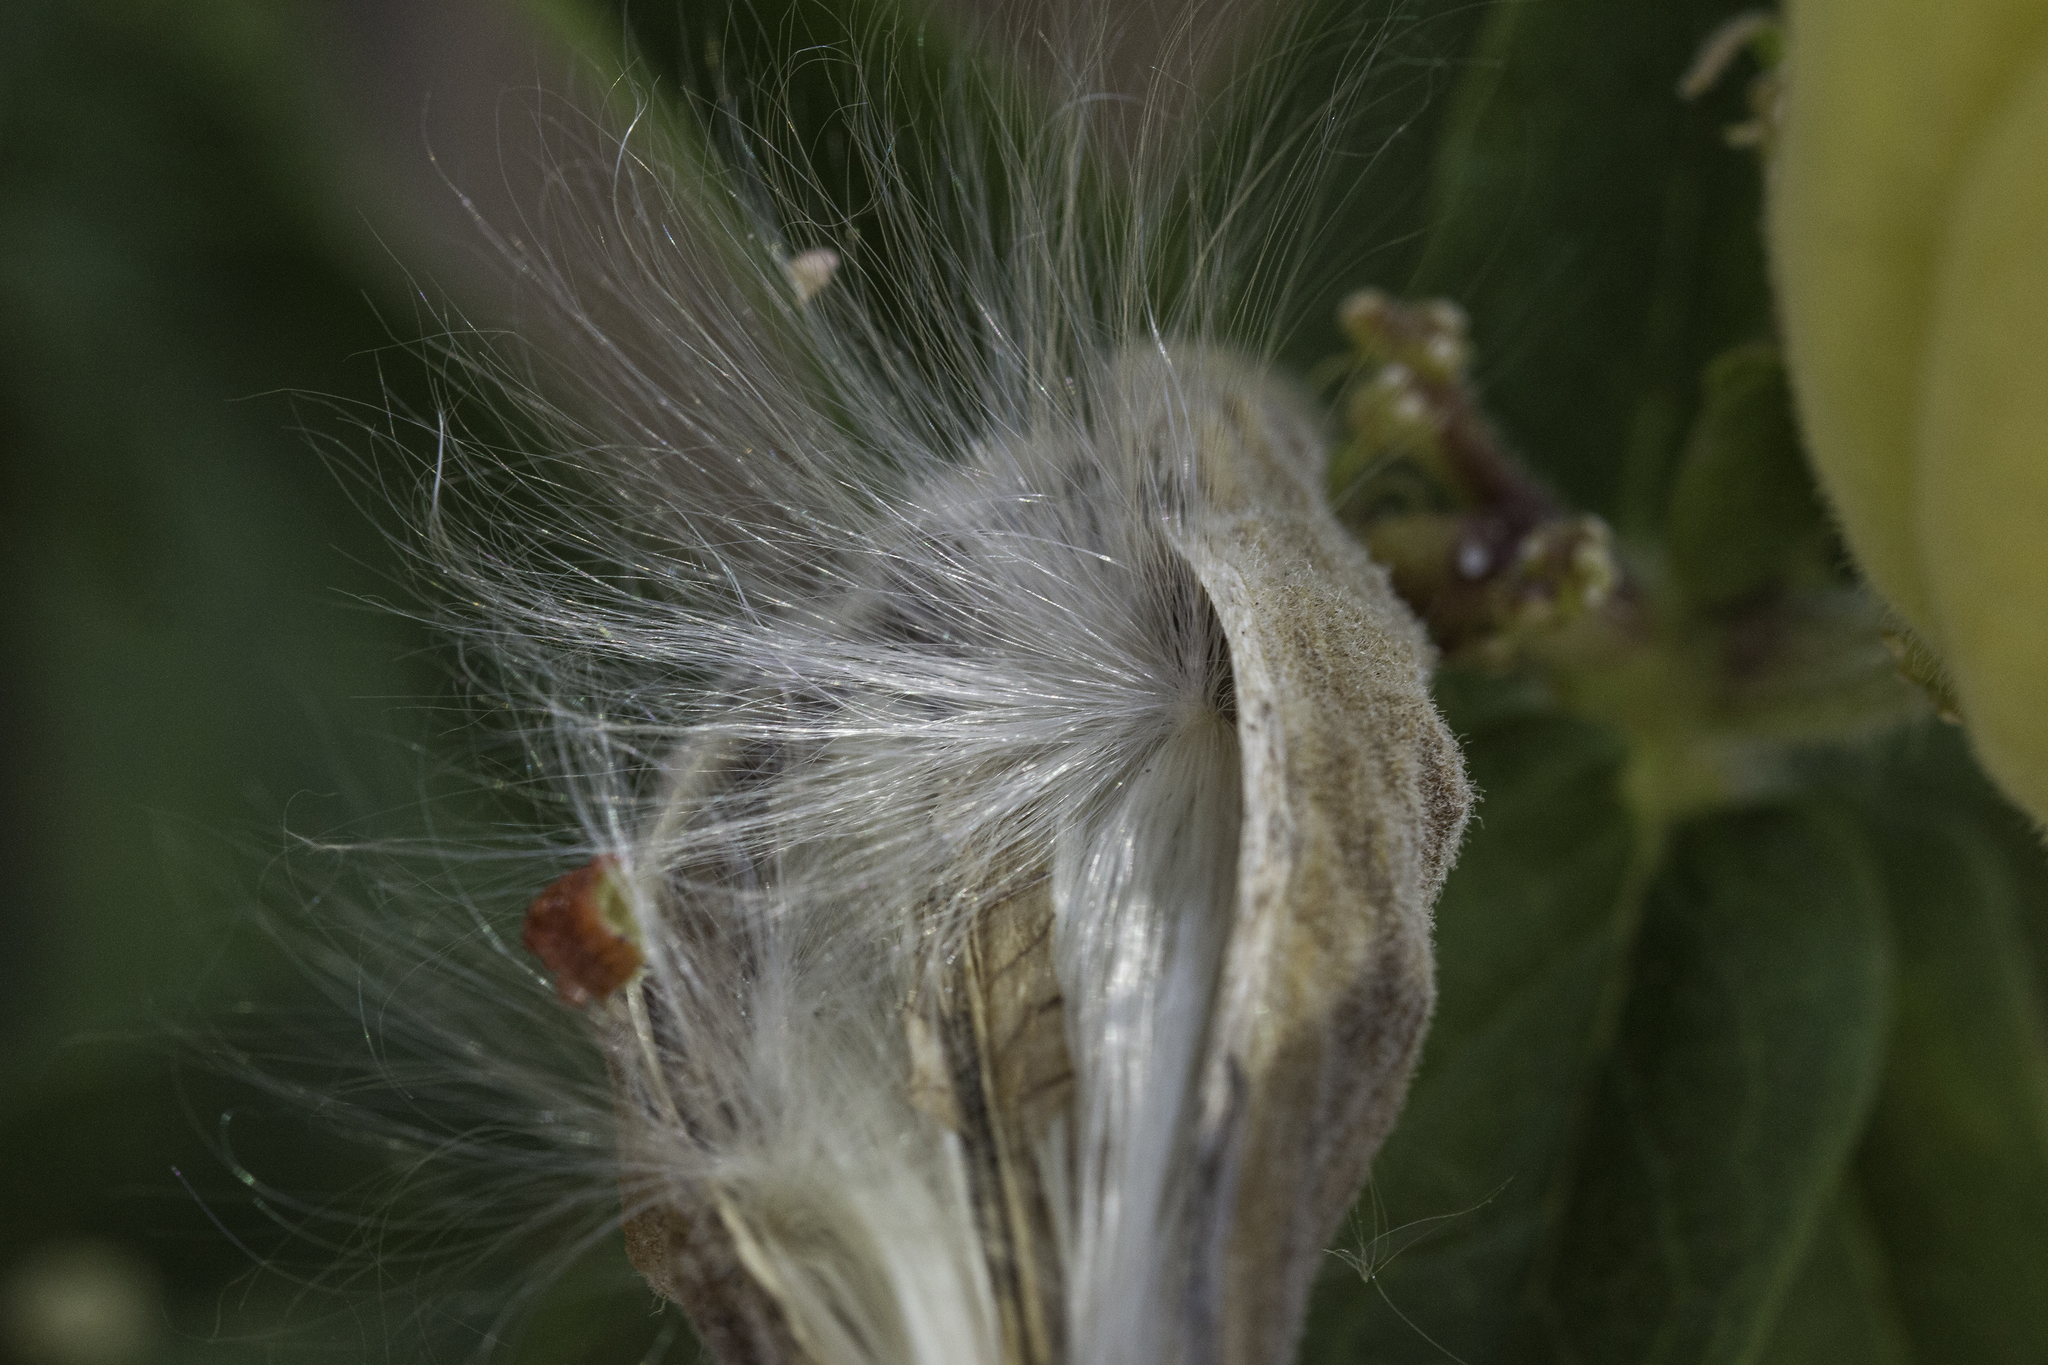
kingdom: Plantae
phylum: Tracheophyta
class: Magnoliopsida
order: Gentianales
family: Apocynaceae
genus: Asclepias
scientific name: Asclepias tuberosa
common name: Butterfly milkweed
